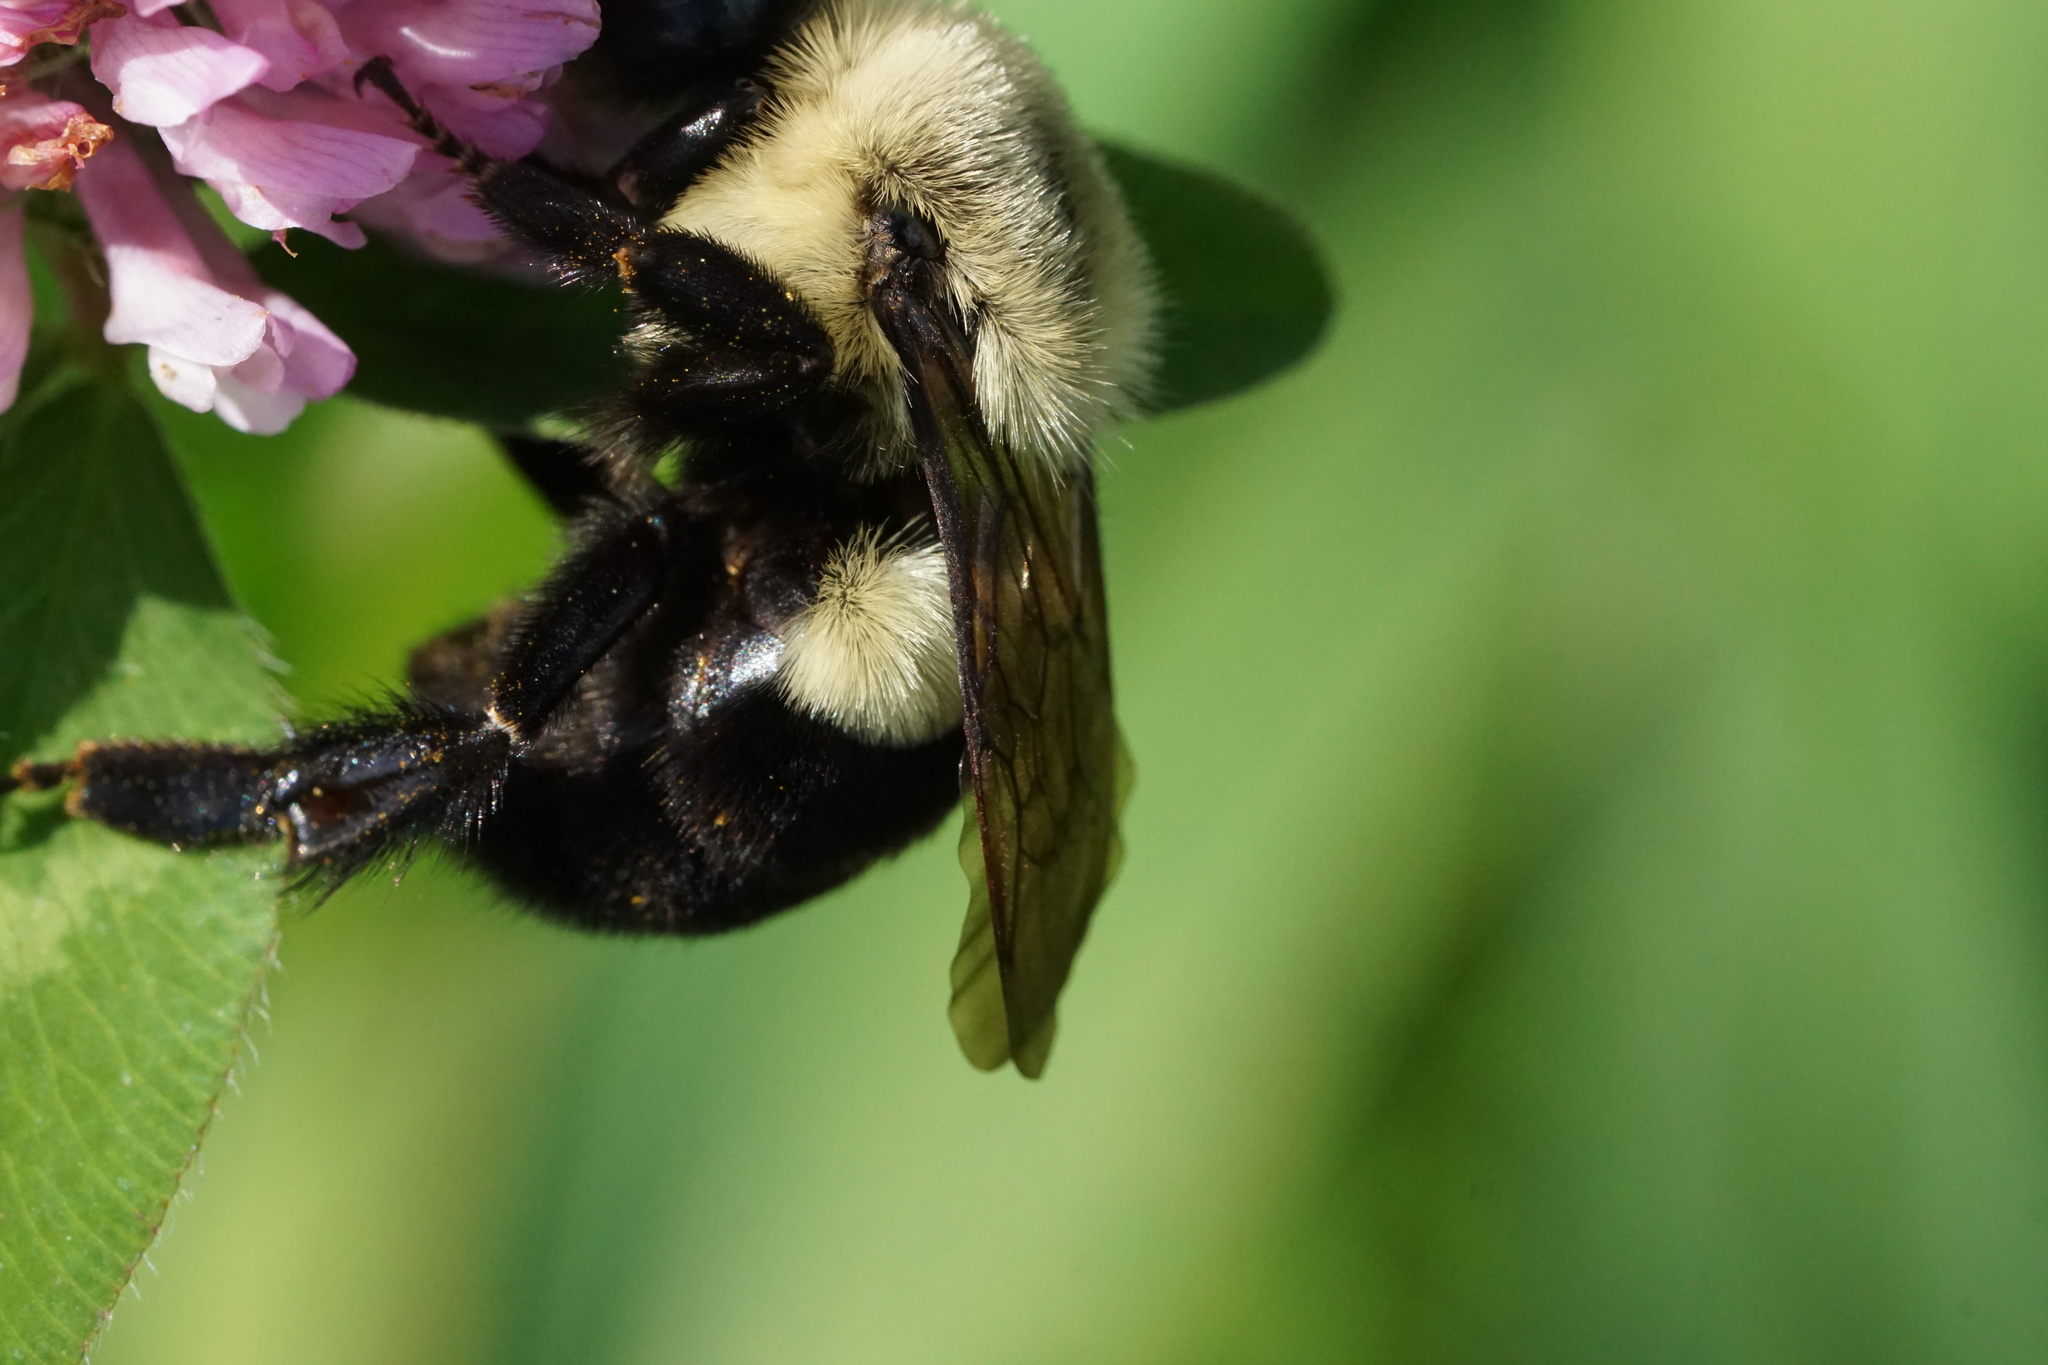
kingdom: Animalia
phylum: Arthropoda
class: Insecta
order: Hymenoptera
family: Apidae
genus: Bombus
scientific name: Bombus impatiens
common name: Common eastern bumble bee
